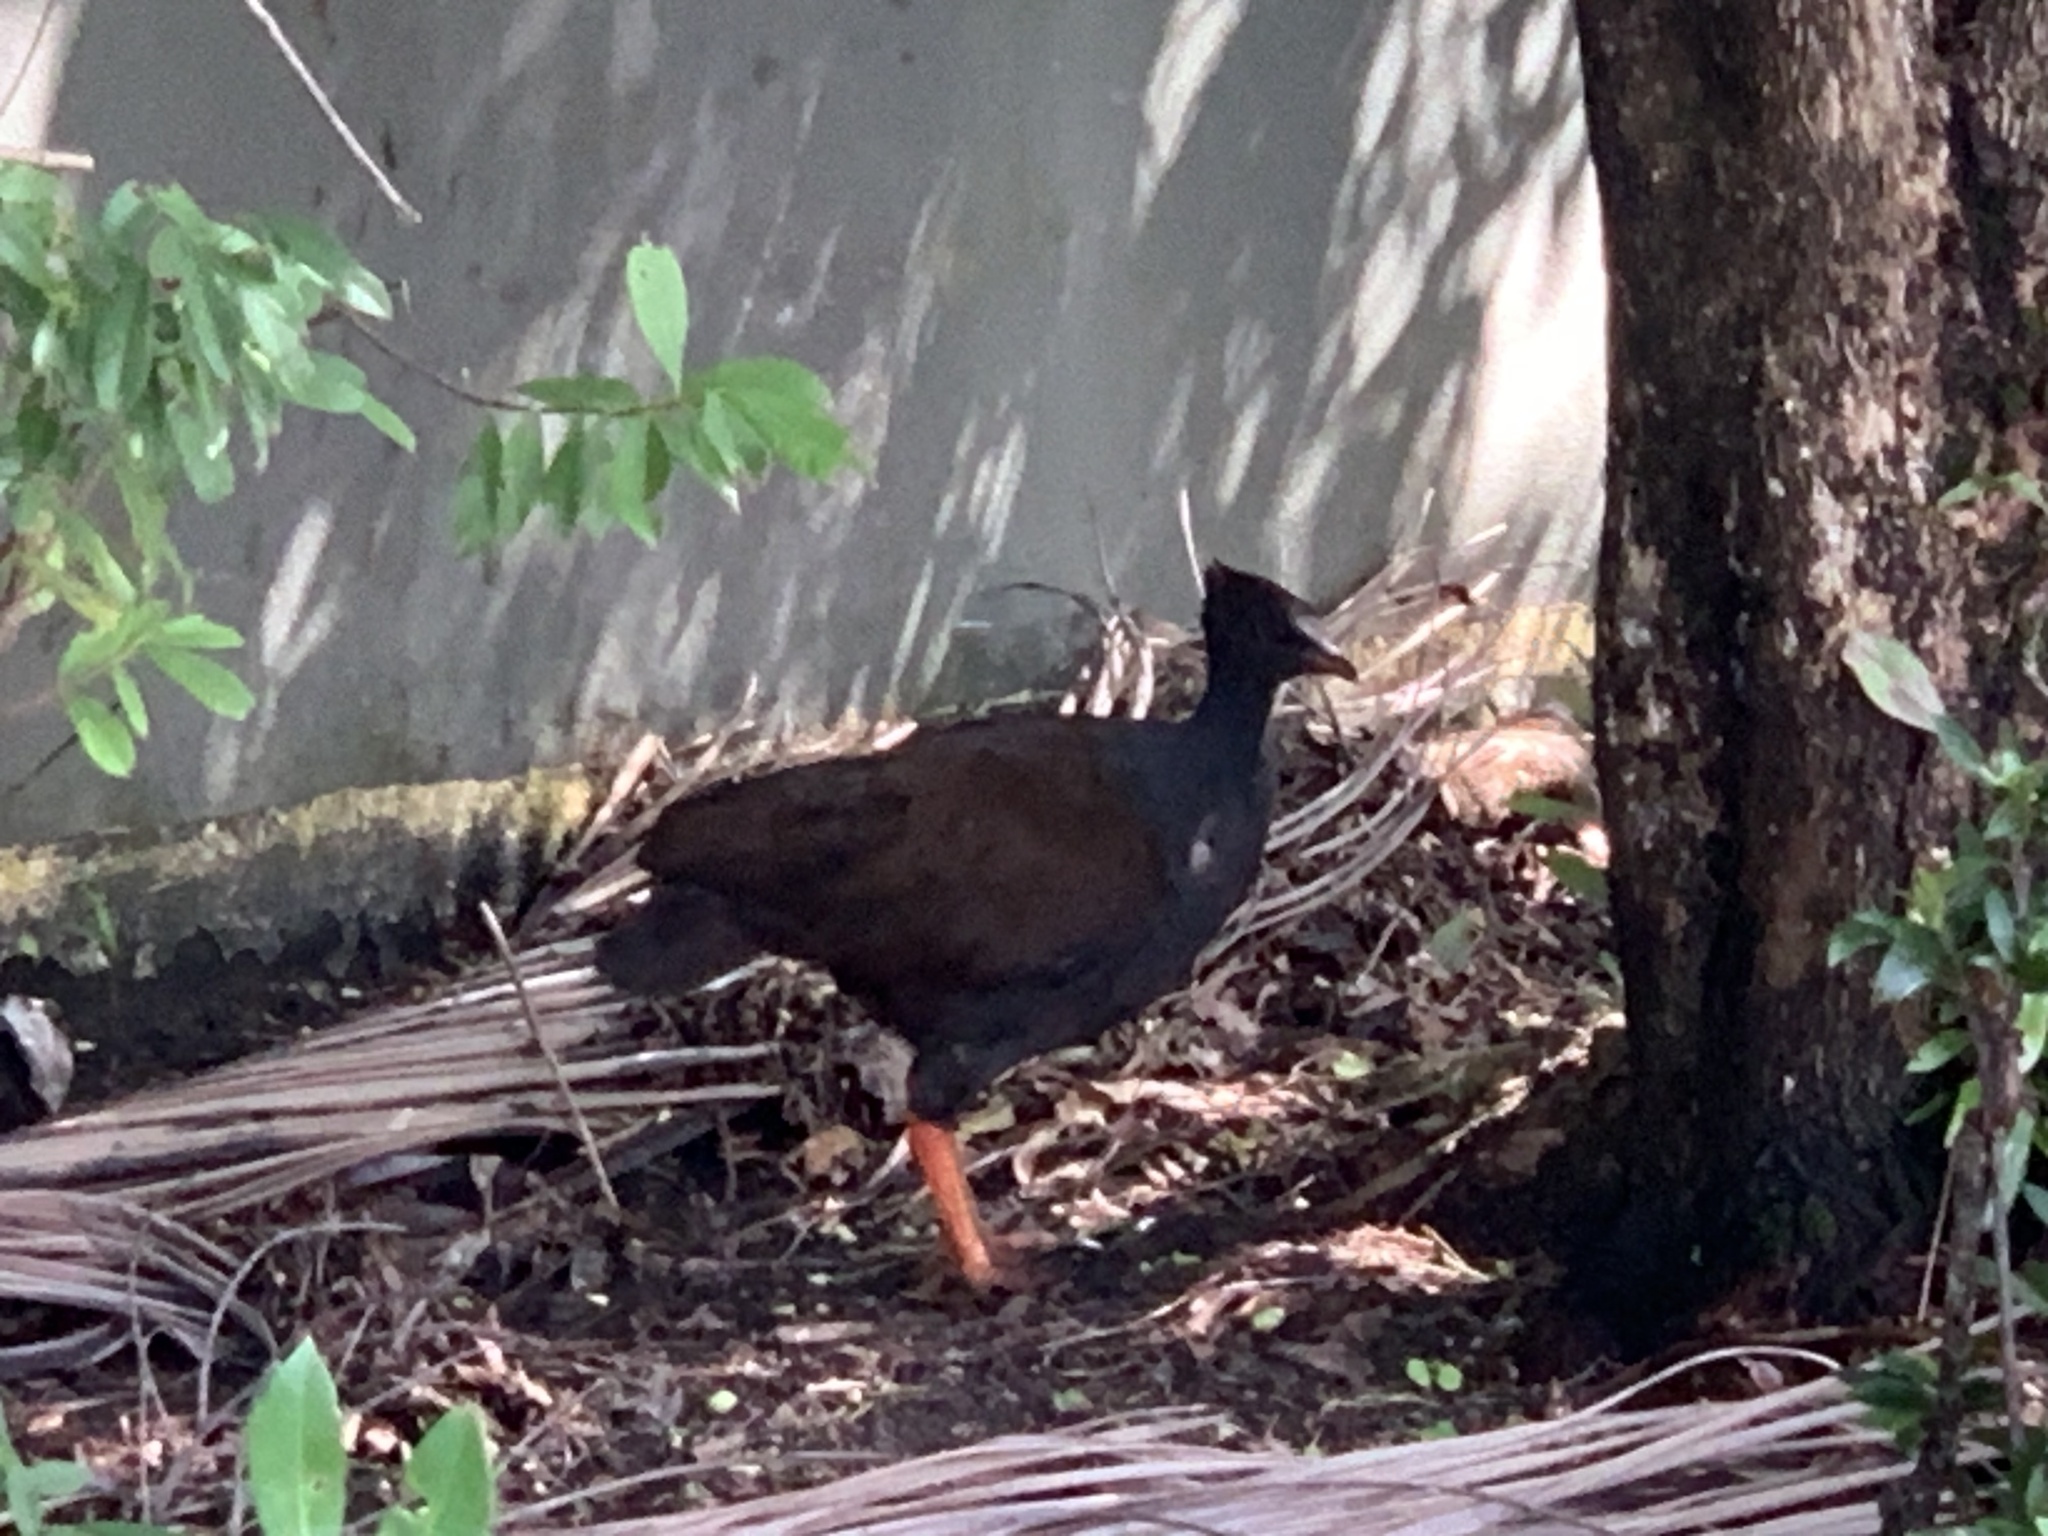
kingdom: Animalia
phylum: Chordata
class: Aves
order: Galliformes
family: Megapodiidae
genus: Megapodius
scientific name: Megapodius reinwardt
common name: Orange-footed scrubfowl
